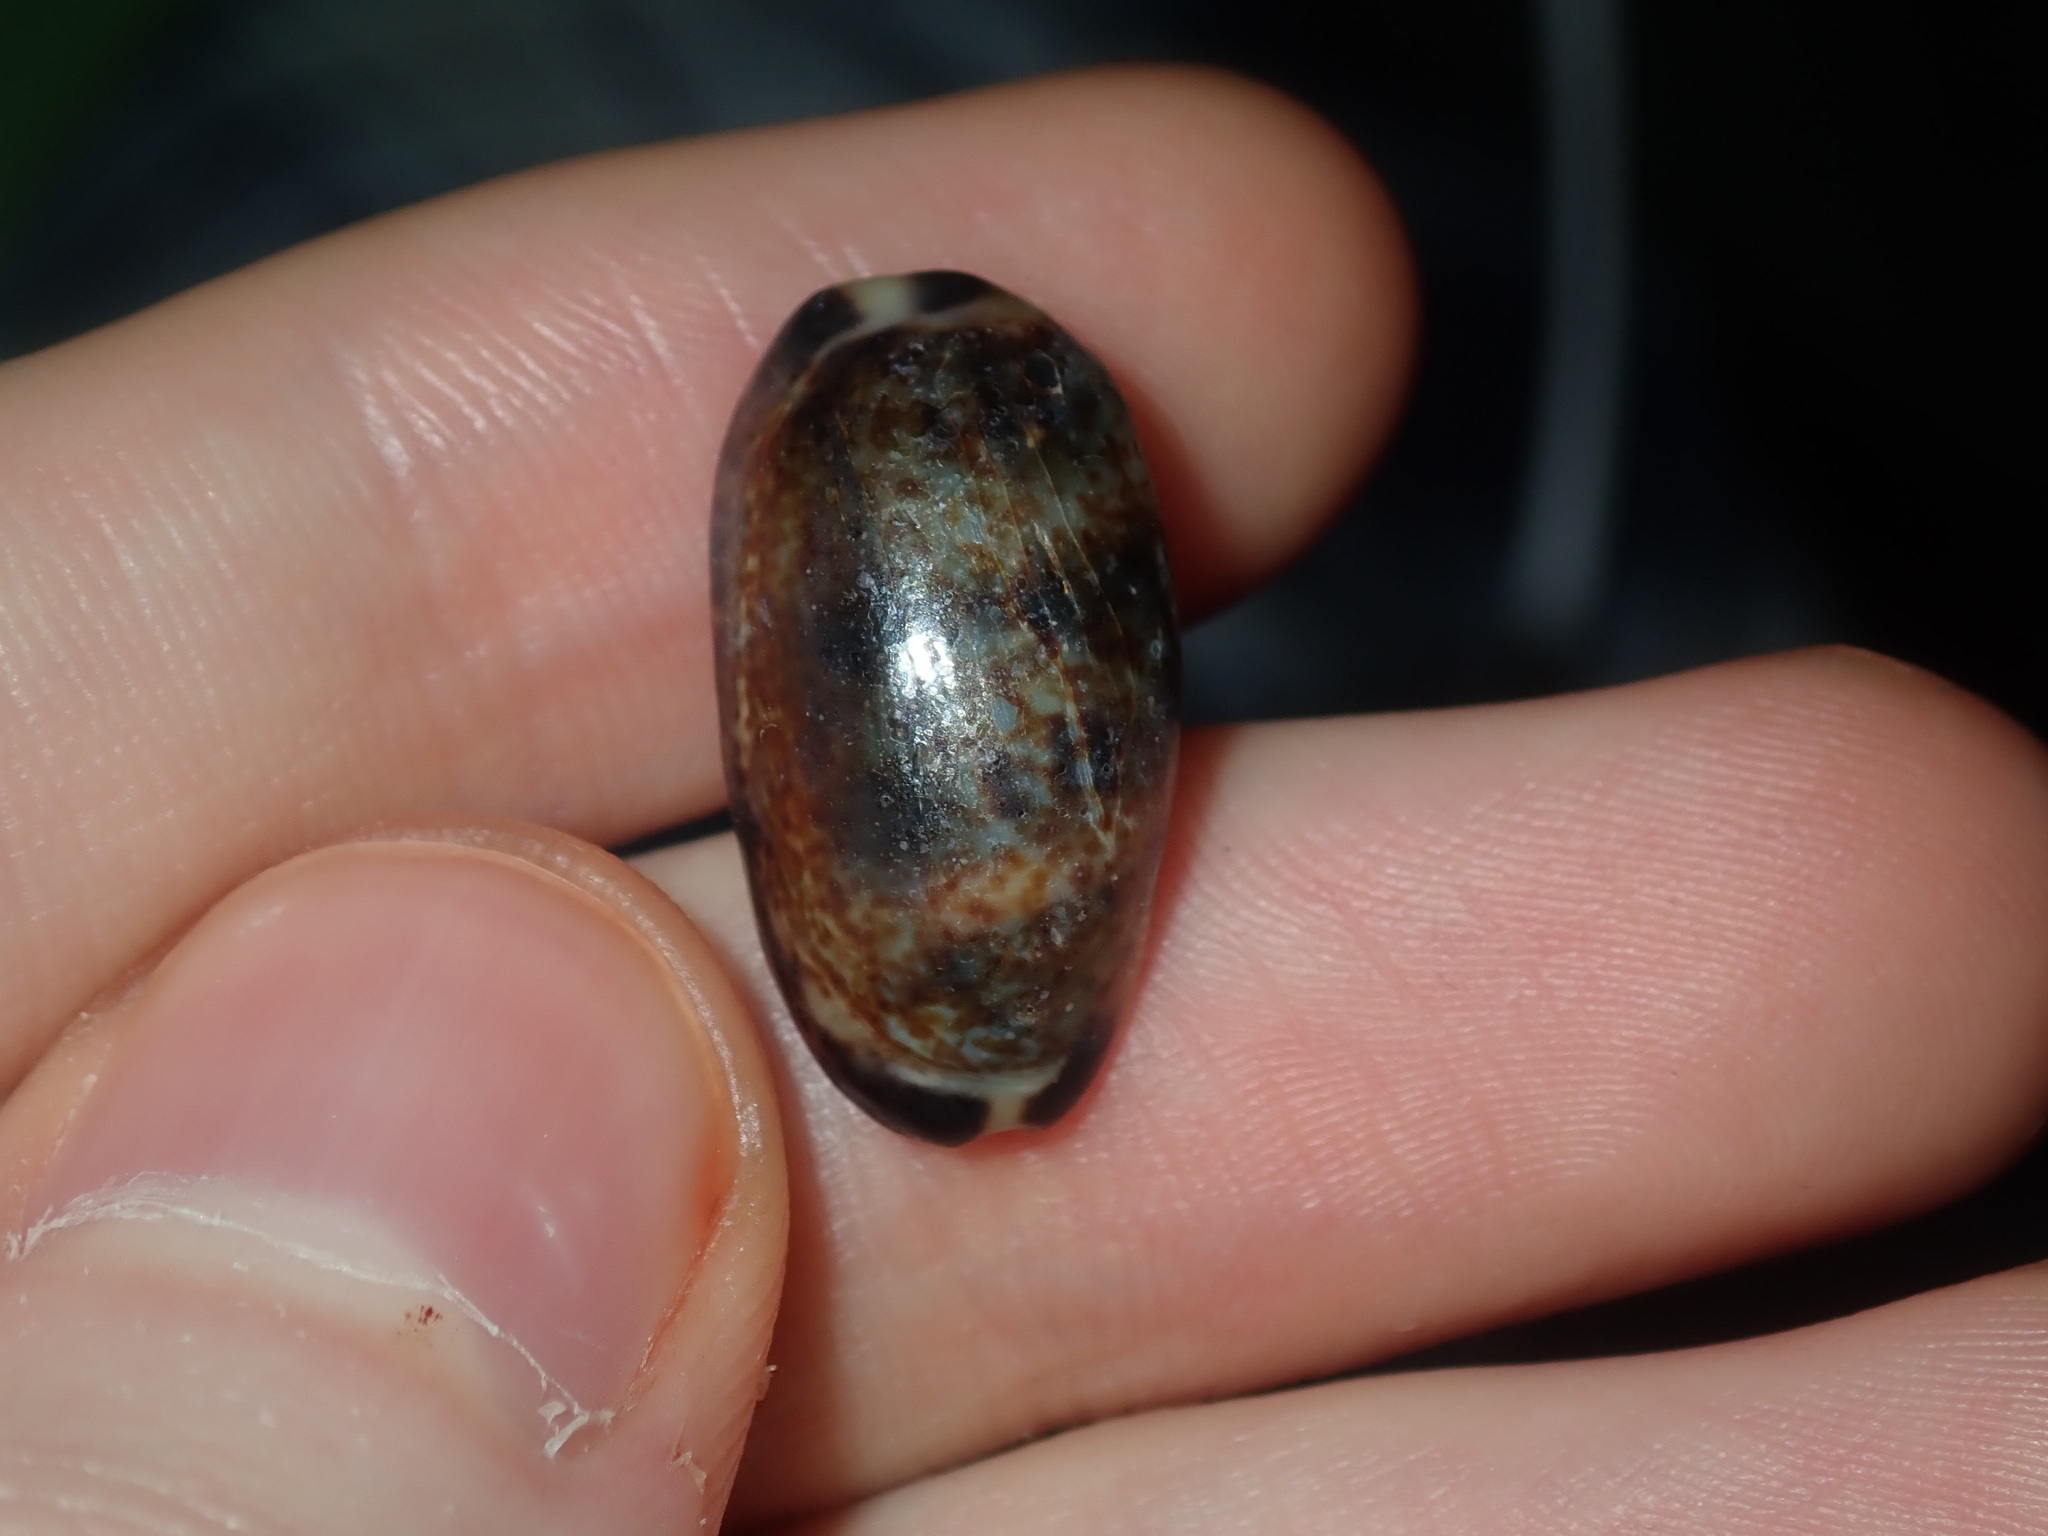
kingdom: Animalia
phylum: Mollusca
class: Gastropoda
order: Littorinimorpha
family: Cypraeidae
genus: Melicerona
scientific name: Melicerona listeri
